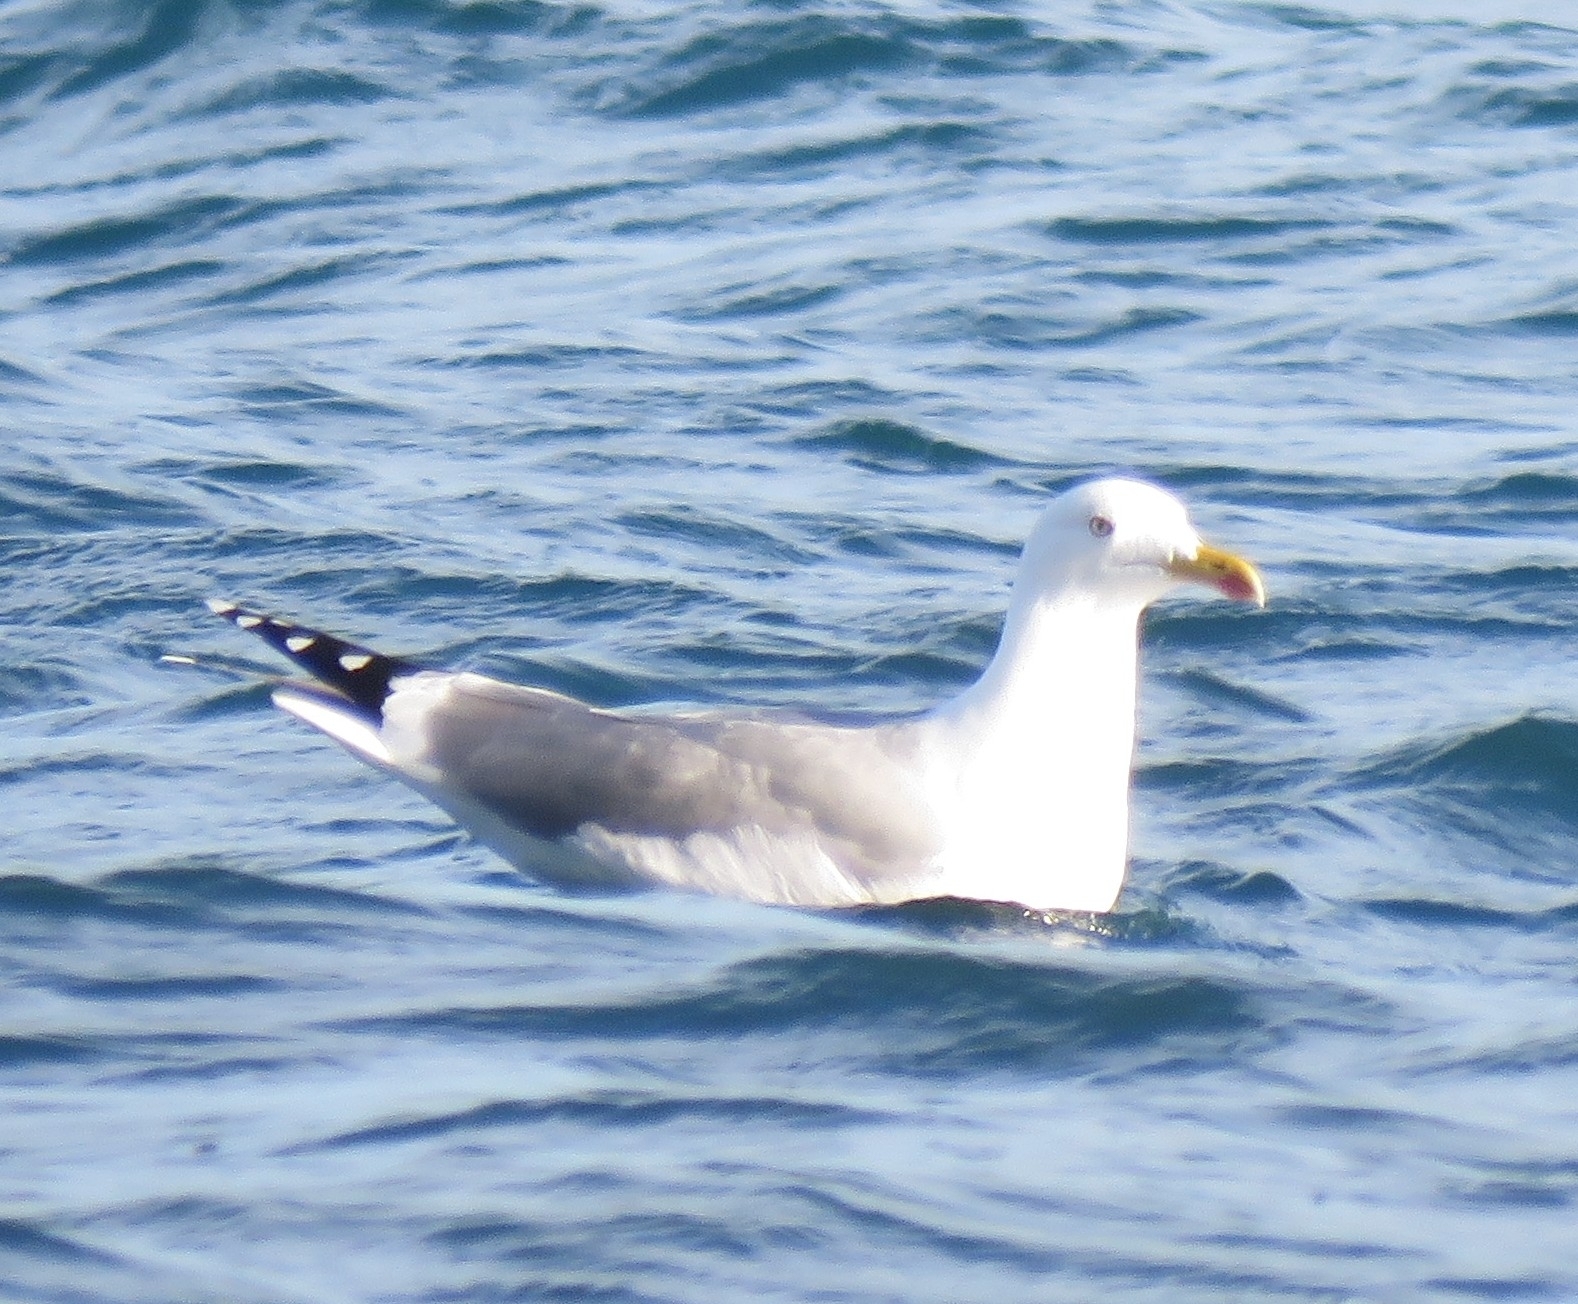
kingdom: Animalia
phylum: Chordata
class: Aves
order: Charadriiformes
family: Laridae
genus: Larus
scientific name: Larus michahellis
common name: Yellow-legged gull
